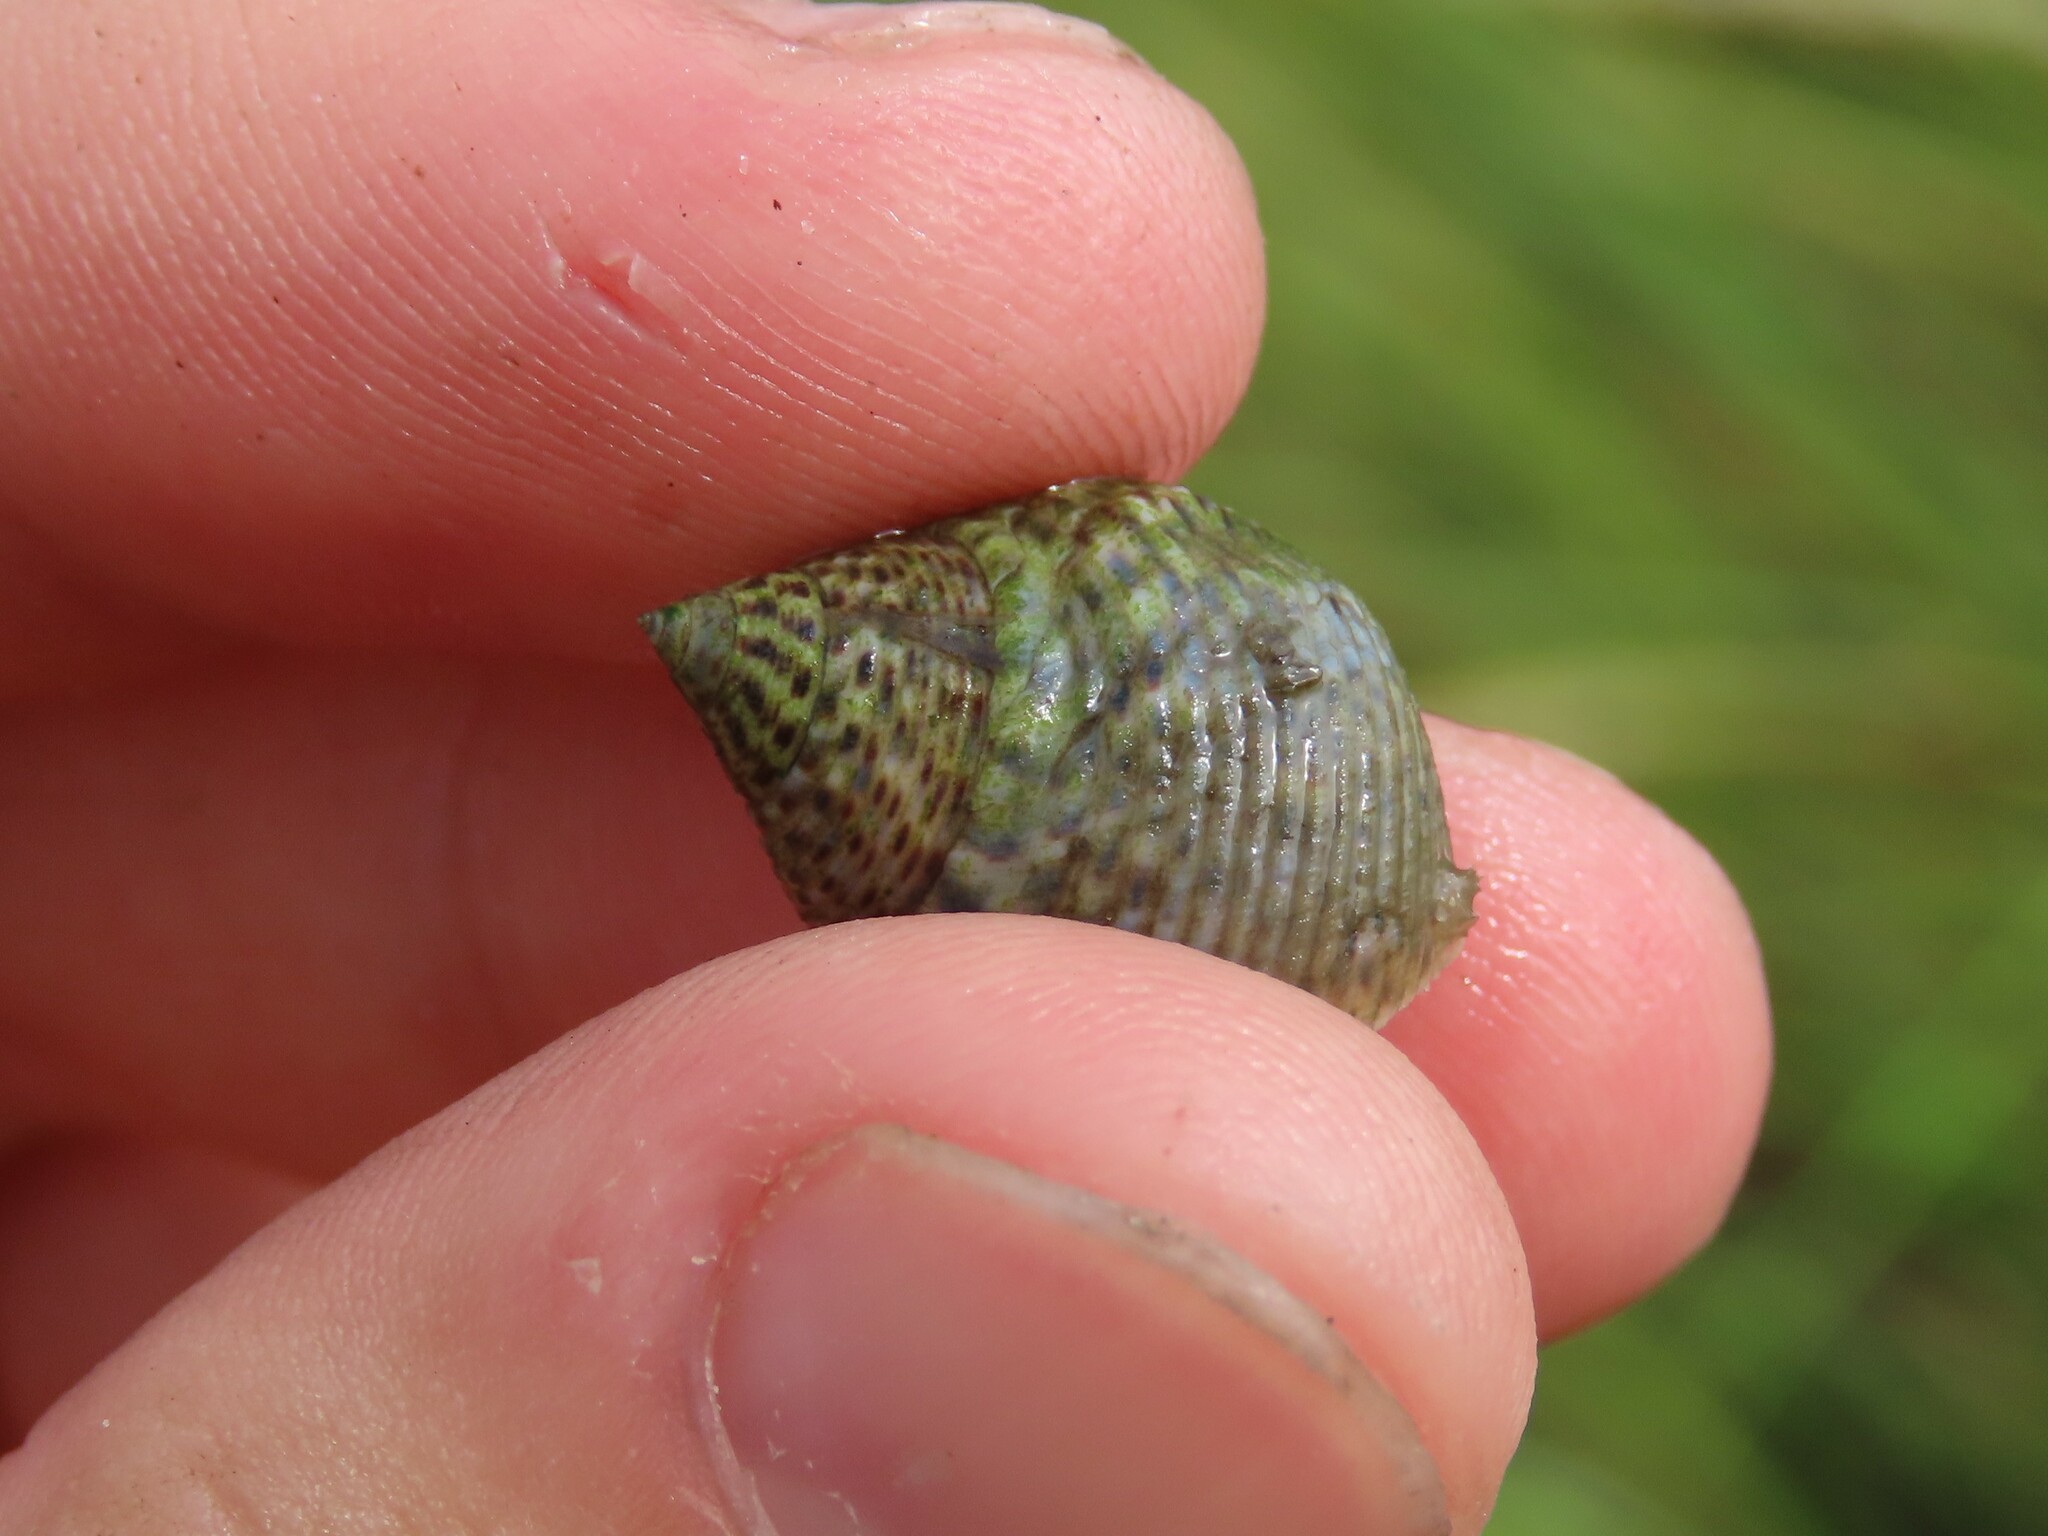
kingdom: Animalia
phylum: Mollusca
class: Gastropoda
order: Littorinimorpha
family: Littorinidae
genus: Littoraria
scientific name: Littoraria irrorata
